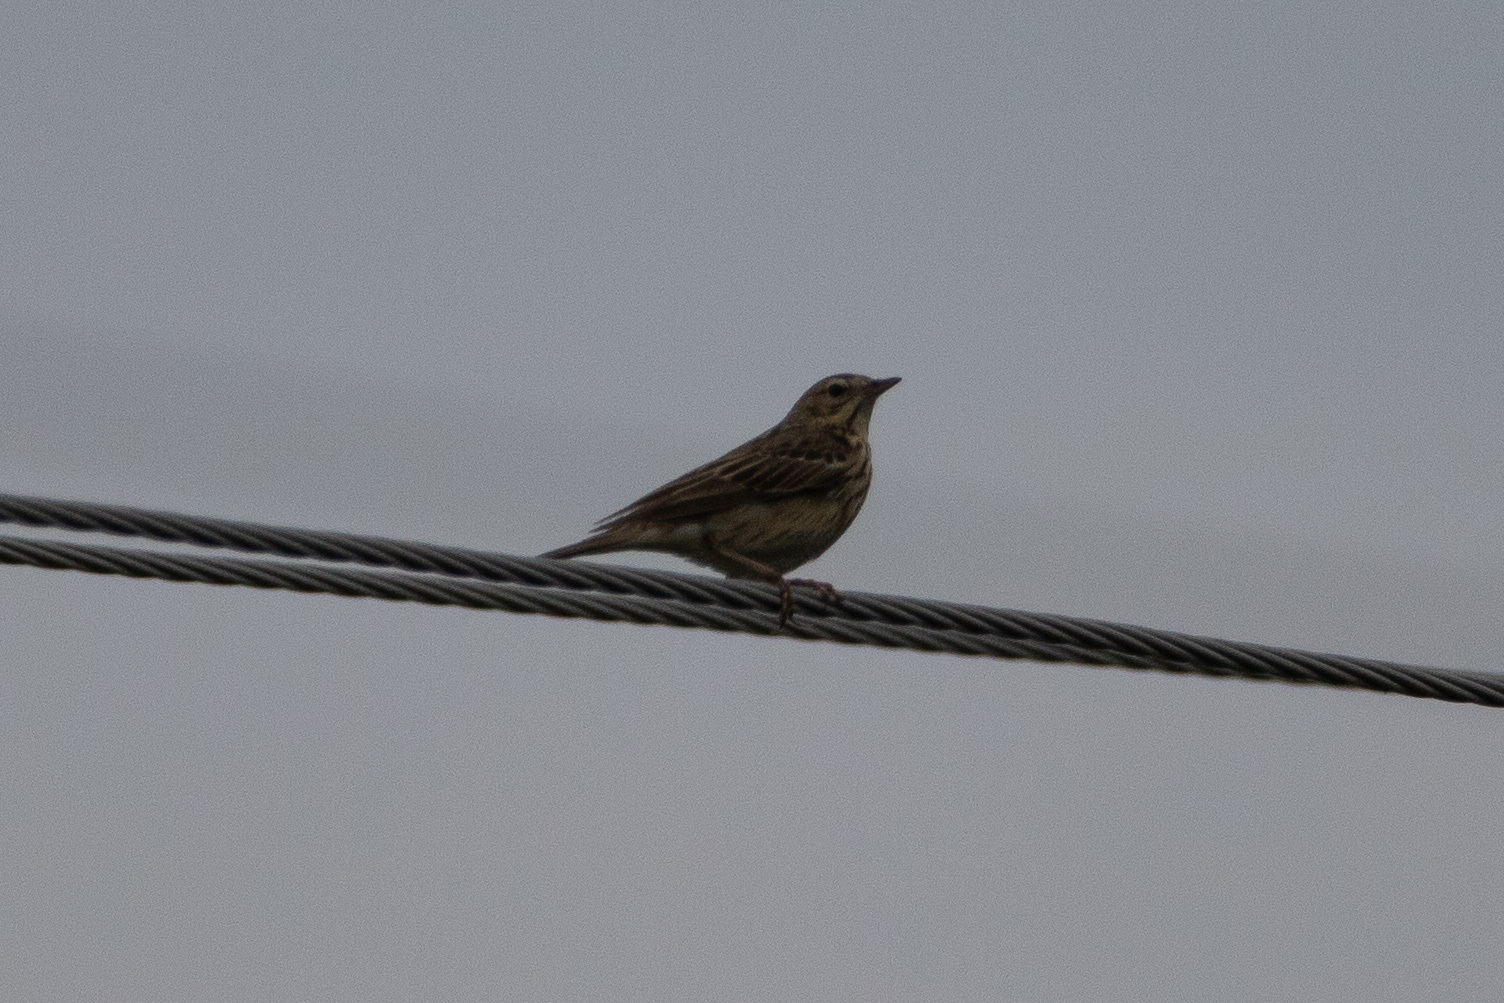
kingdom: Animalia
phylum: Chordata
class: Aves
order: Passeriformes
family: Motacillidae
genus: Anthus
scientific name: Anthus trivialis
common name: Tree pipit
